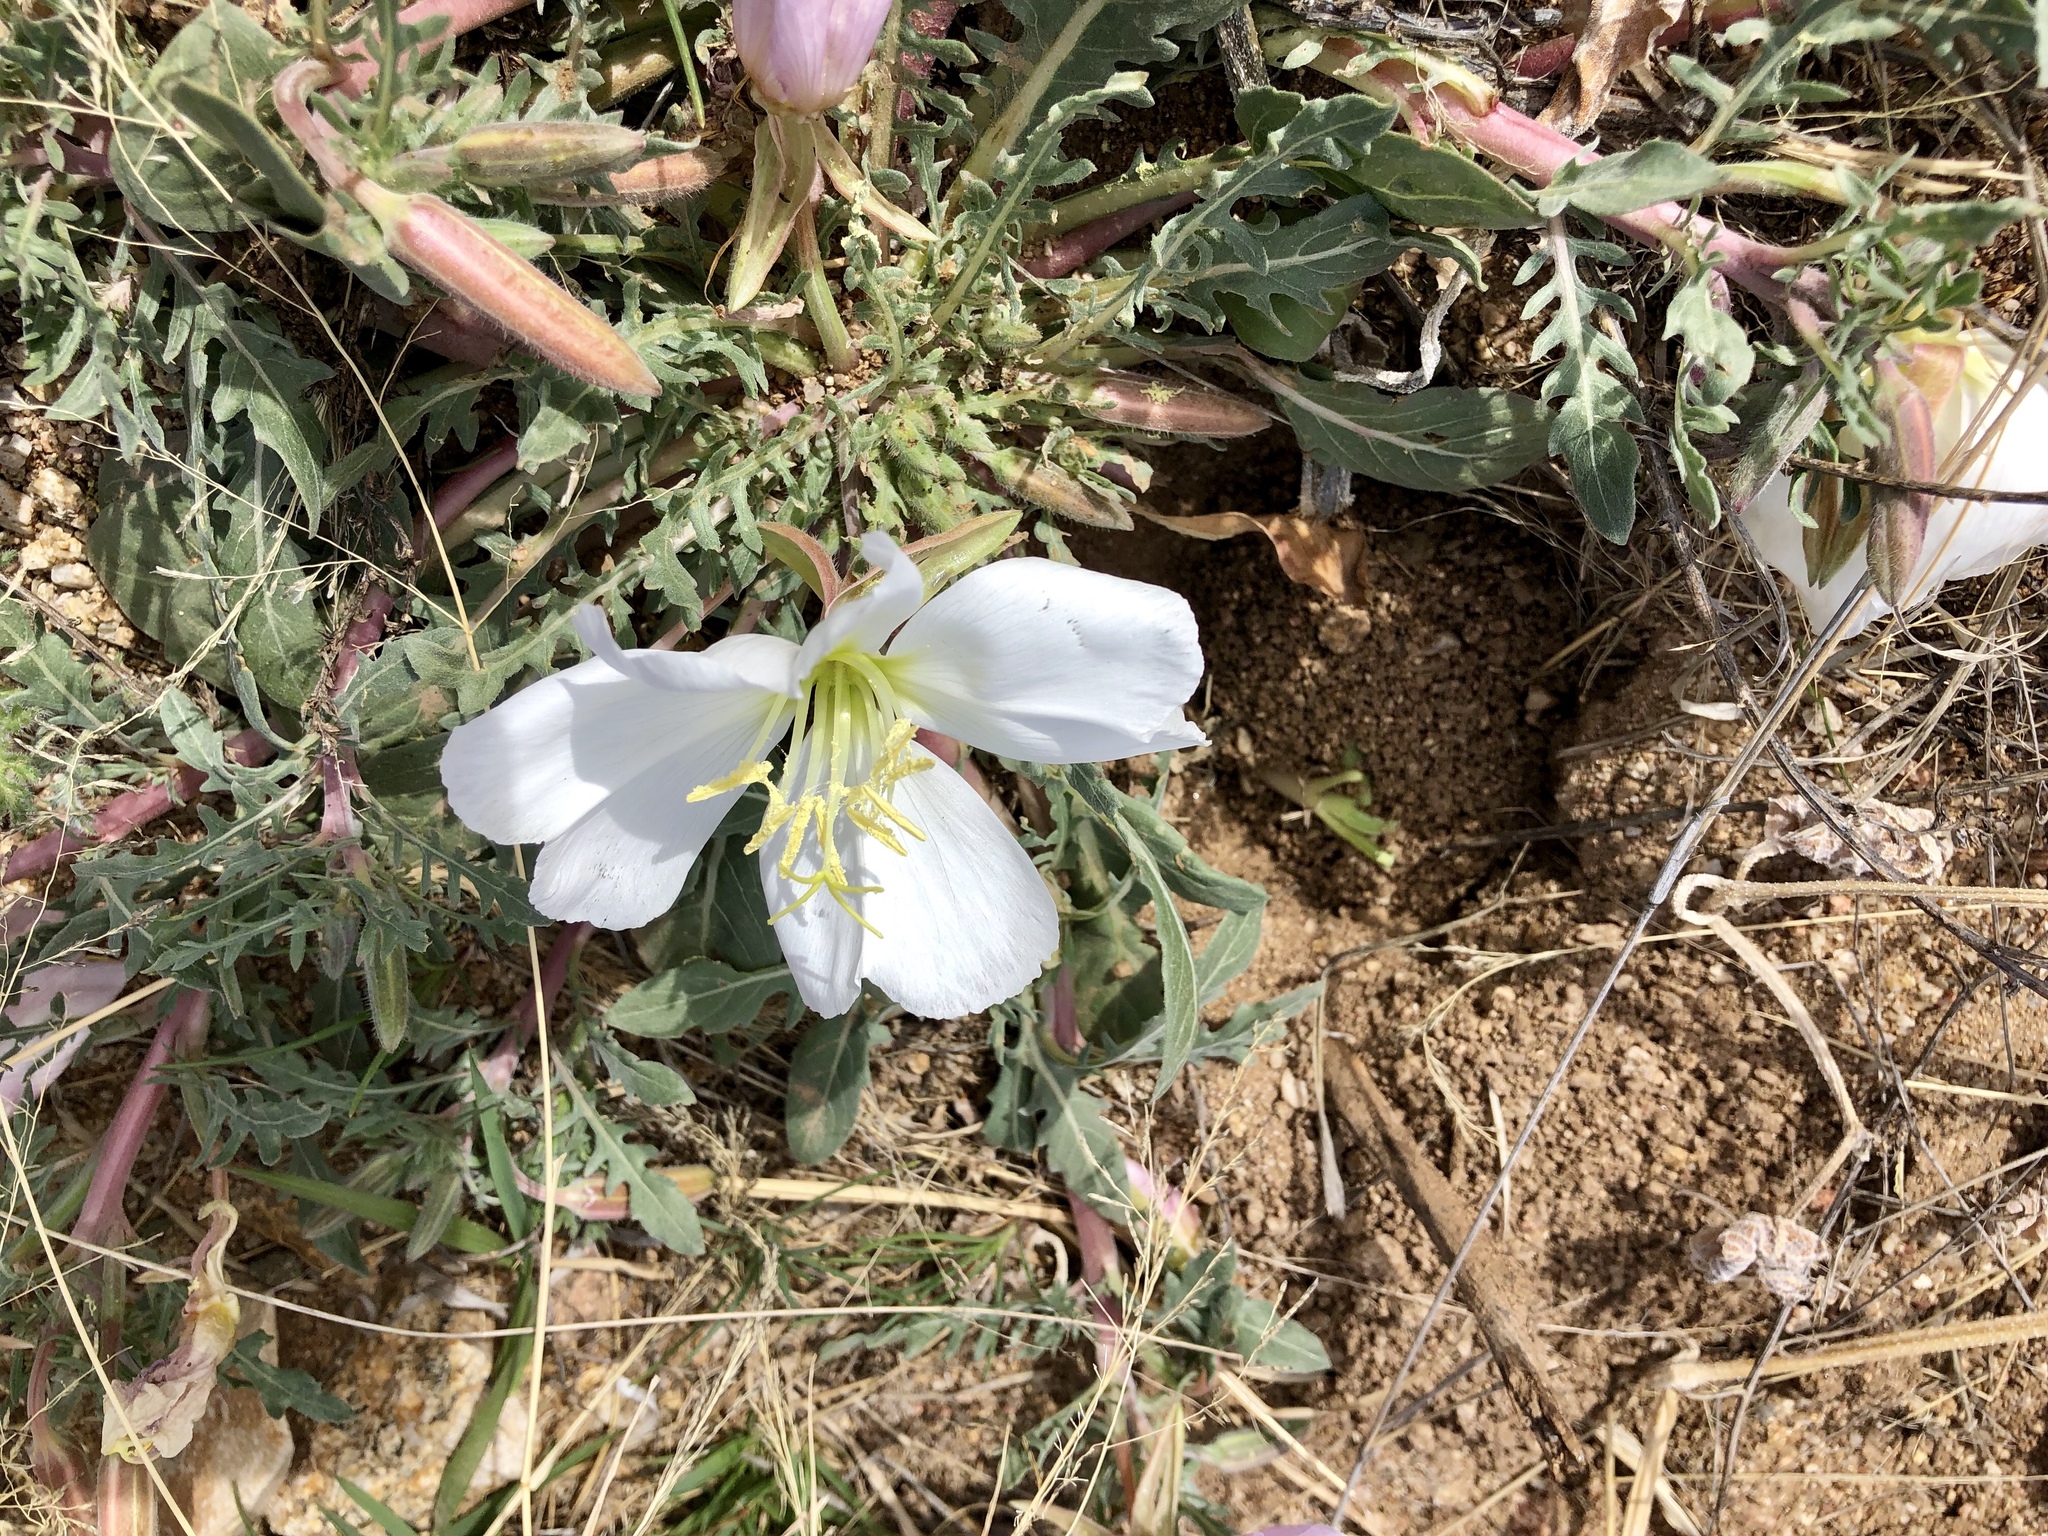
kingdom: Plantae
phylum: Tracheophyta
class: Magnoliopsida
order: Myrtales
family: Onagraceae
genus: Oenothera
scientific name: Oenothera albicaulis
